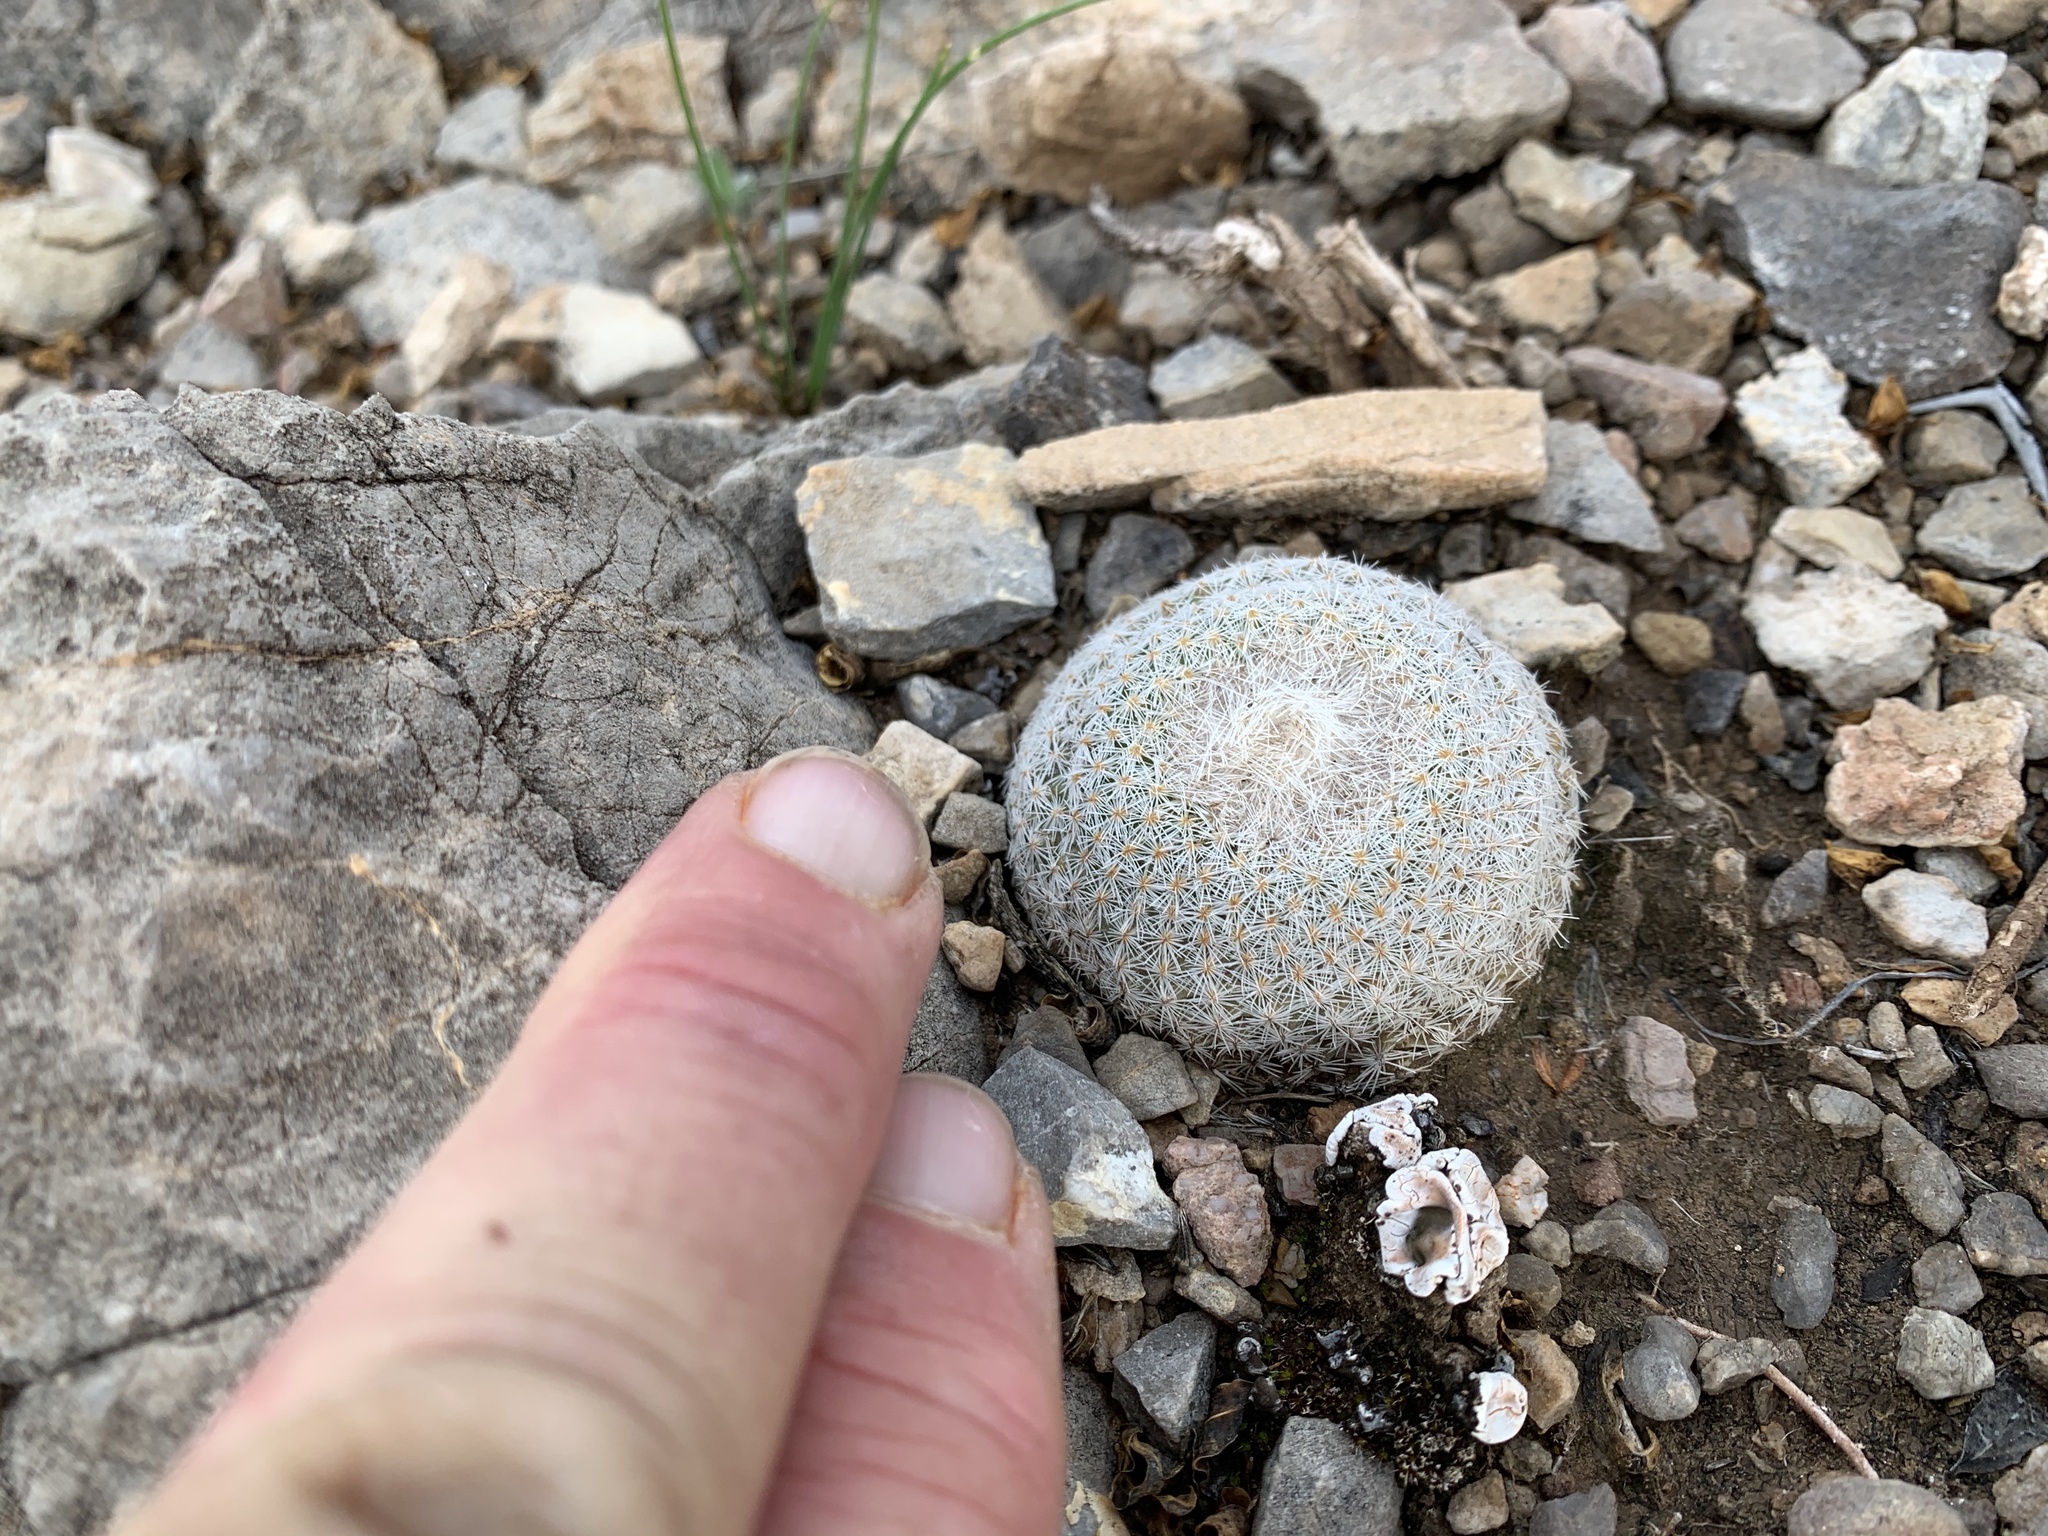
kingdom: Plantae
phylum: Tracheophyta
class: Magnoliopsida
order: Caryophyllales
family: Cactaceae
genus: Epithelantha
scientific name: Epithelantha micromeris
